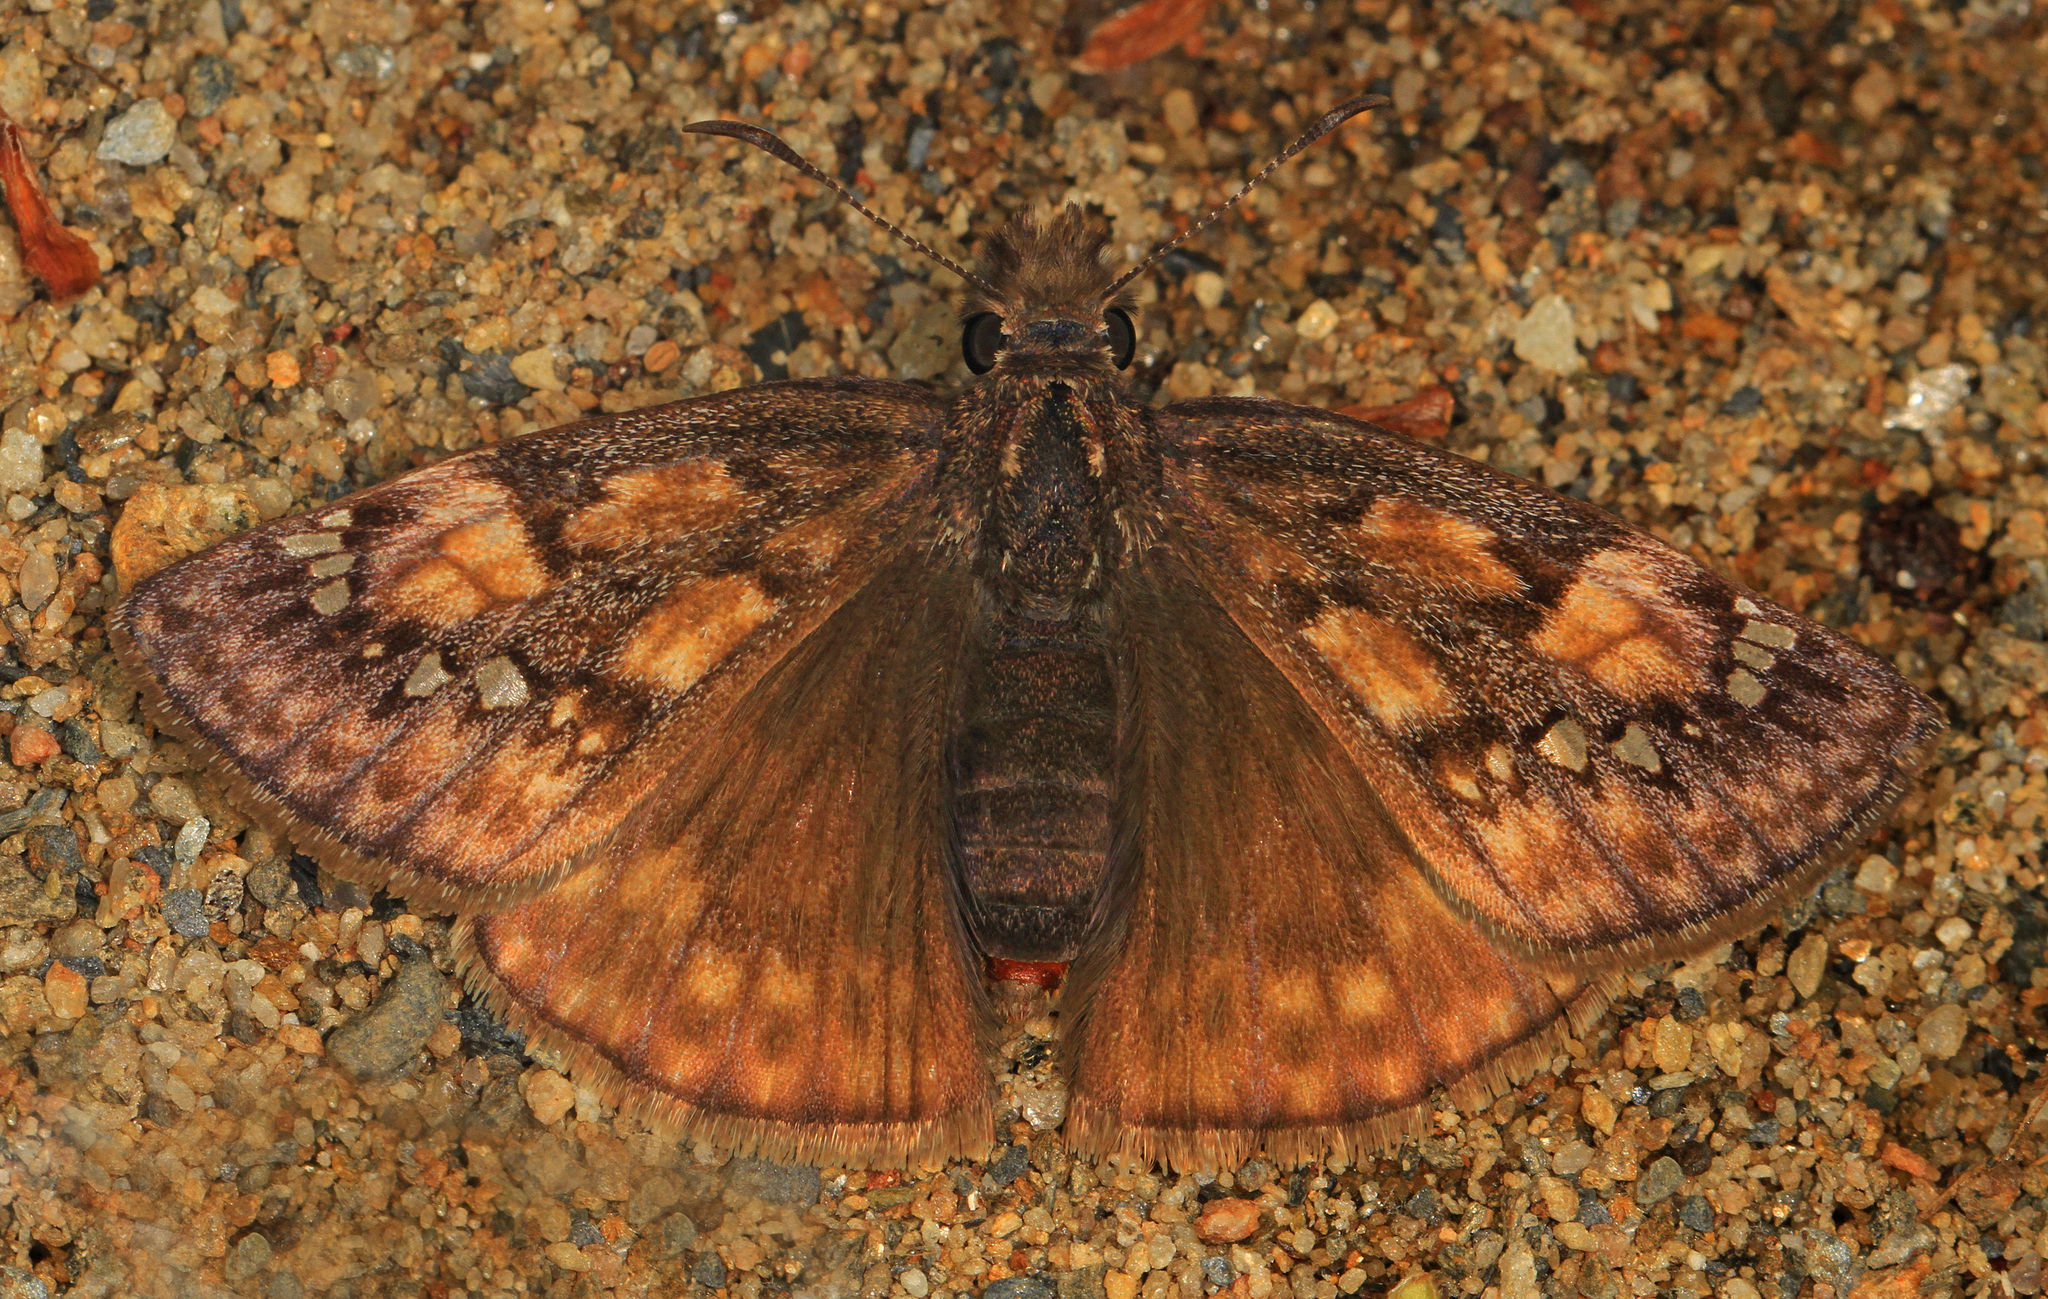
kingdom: Animalia
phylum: Arthropoda
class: Insecta
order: Lepidoptera
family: Hesperiidae
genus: Erynnis
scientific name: Erynnis baptisiae
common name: Wild indigo duskywing
